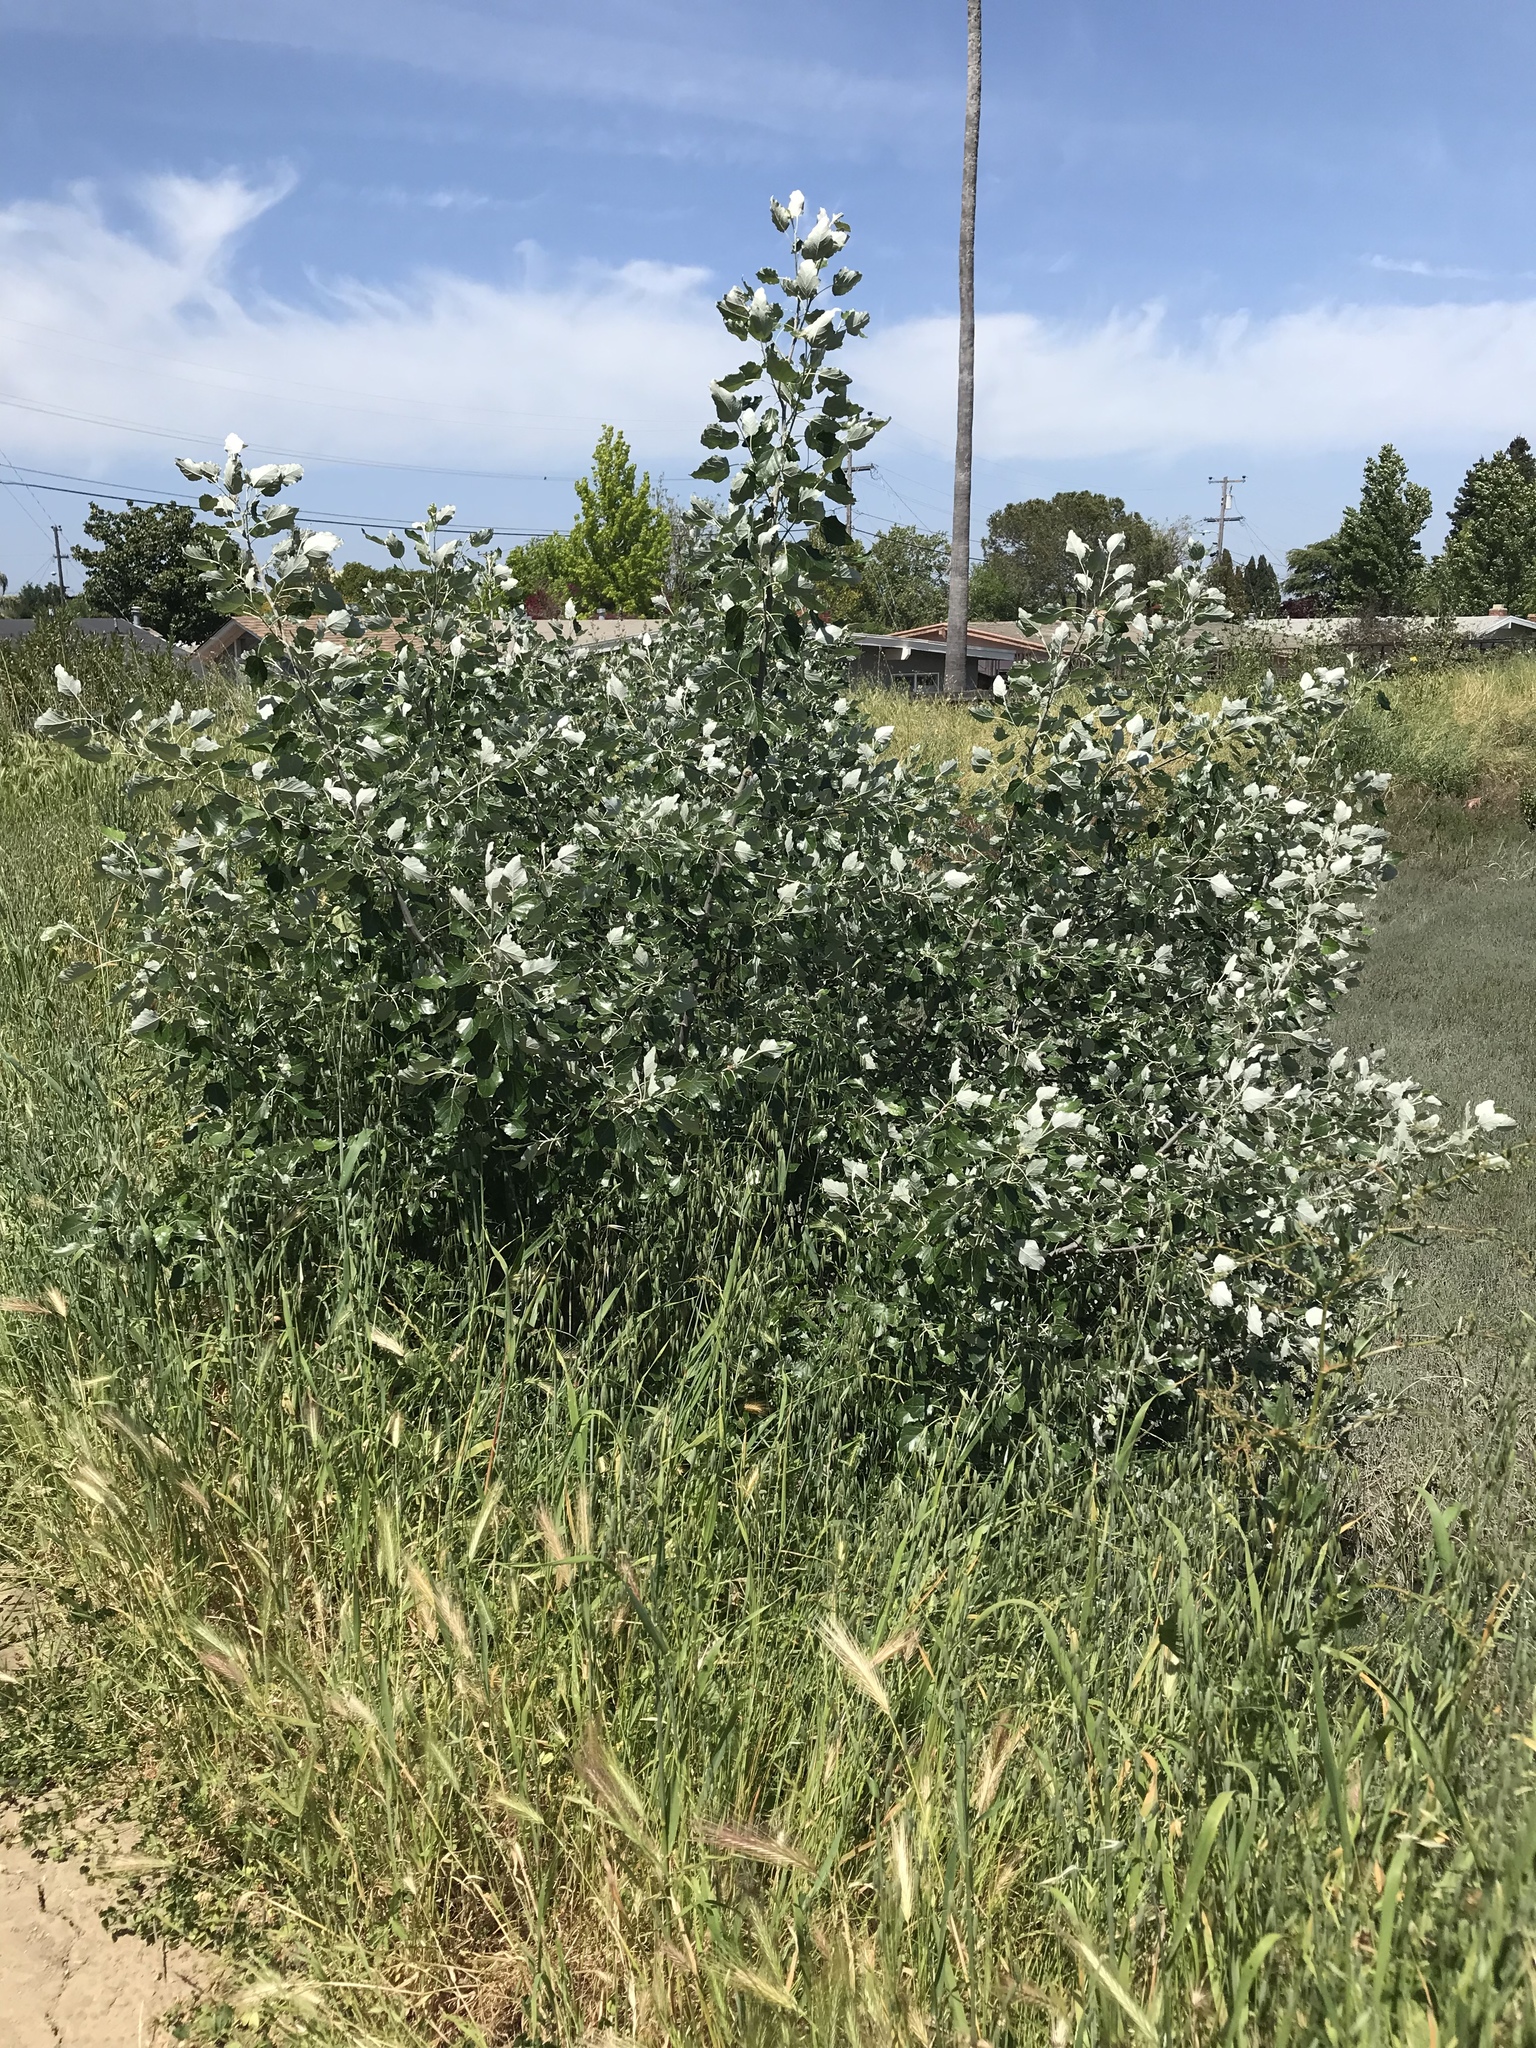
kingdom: Plantae
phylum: Tracheophyta
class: Magnoliopsida
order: Malpighiales
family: Salicaceae
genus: Populus
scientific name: Populus alba
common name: White poplar
